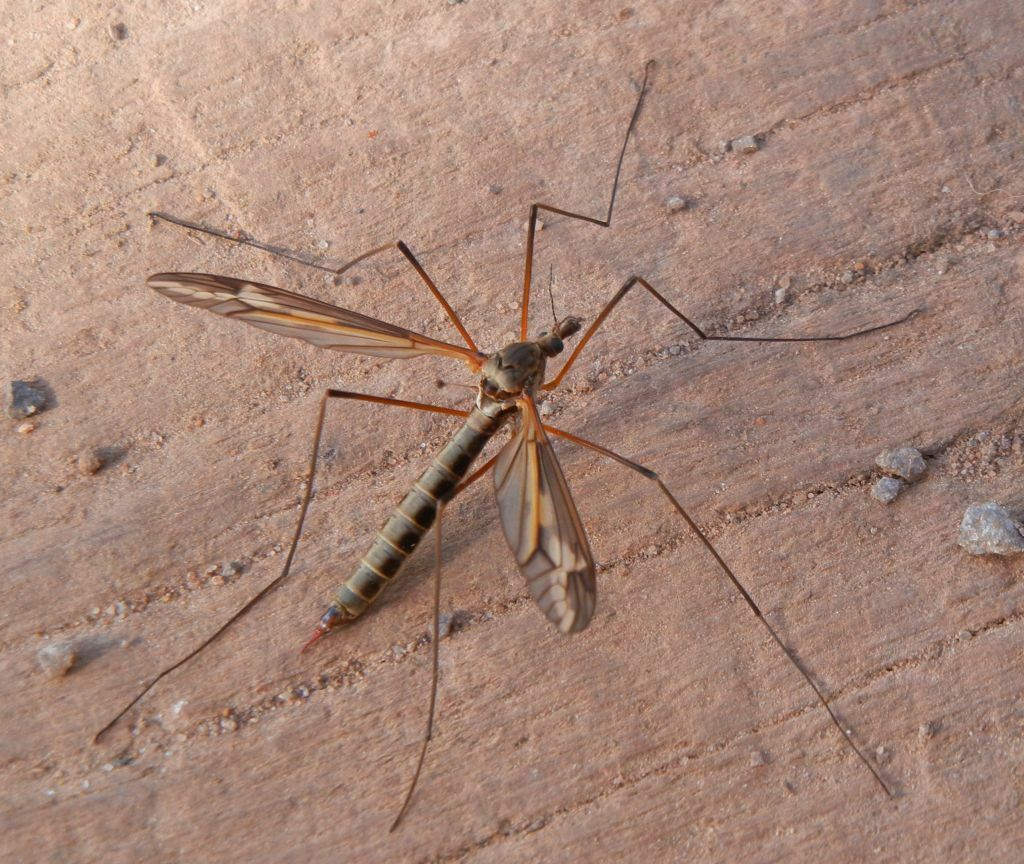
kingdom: Animalia
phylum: Arthropoda
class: Insecta
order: Diptera
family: Tipulidae
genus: Tipula
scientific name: Tipula vittata
